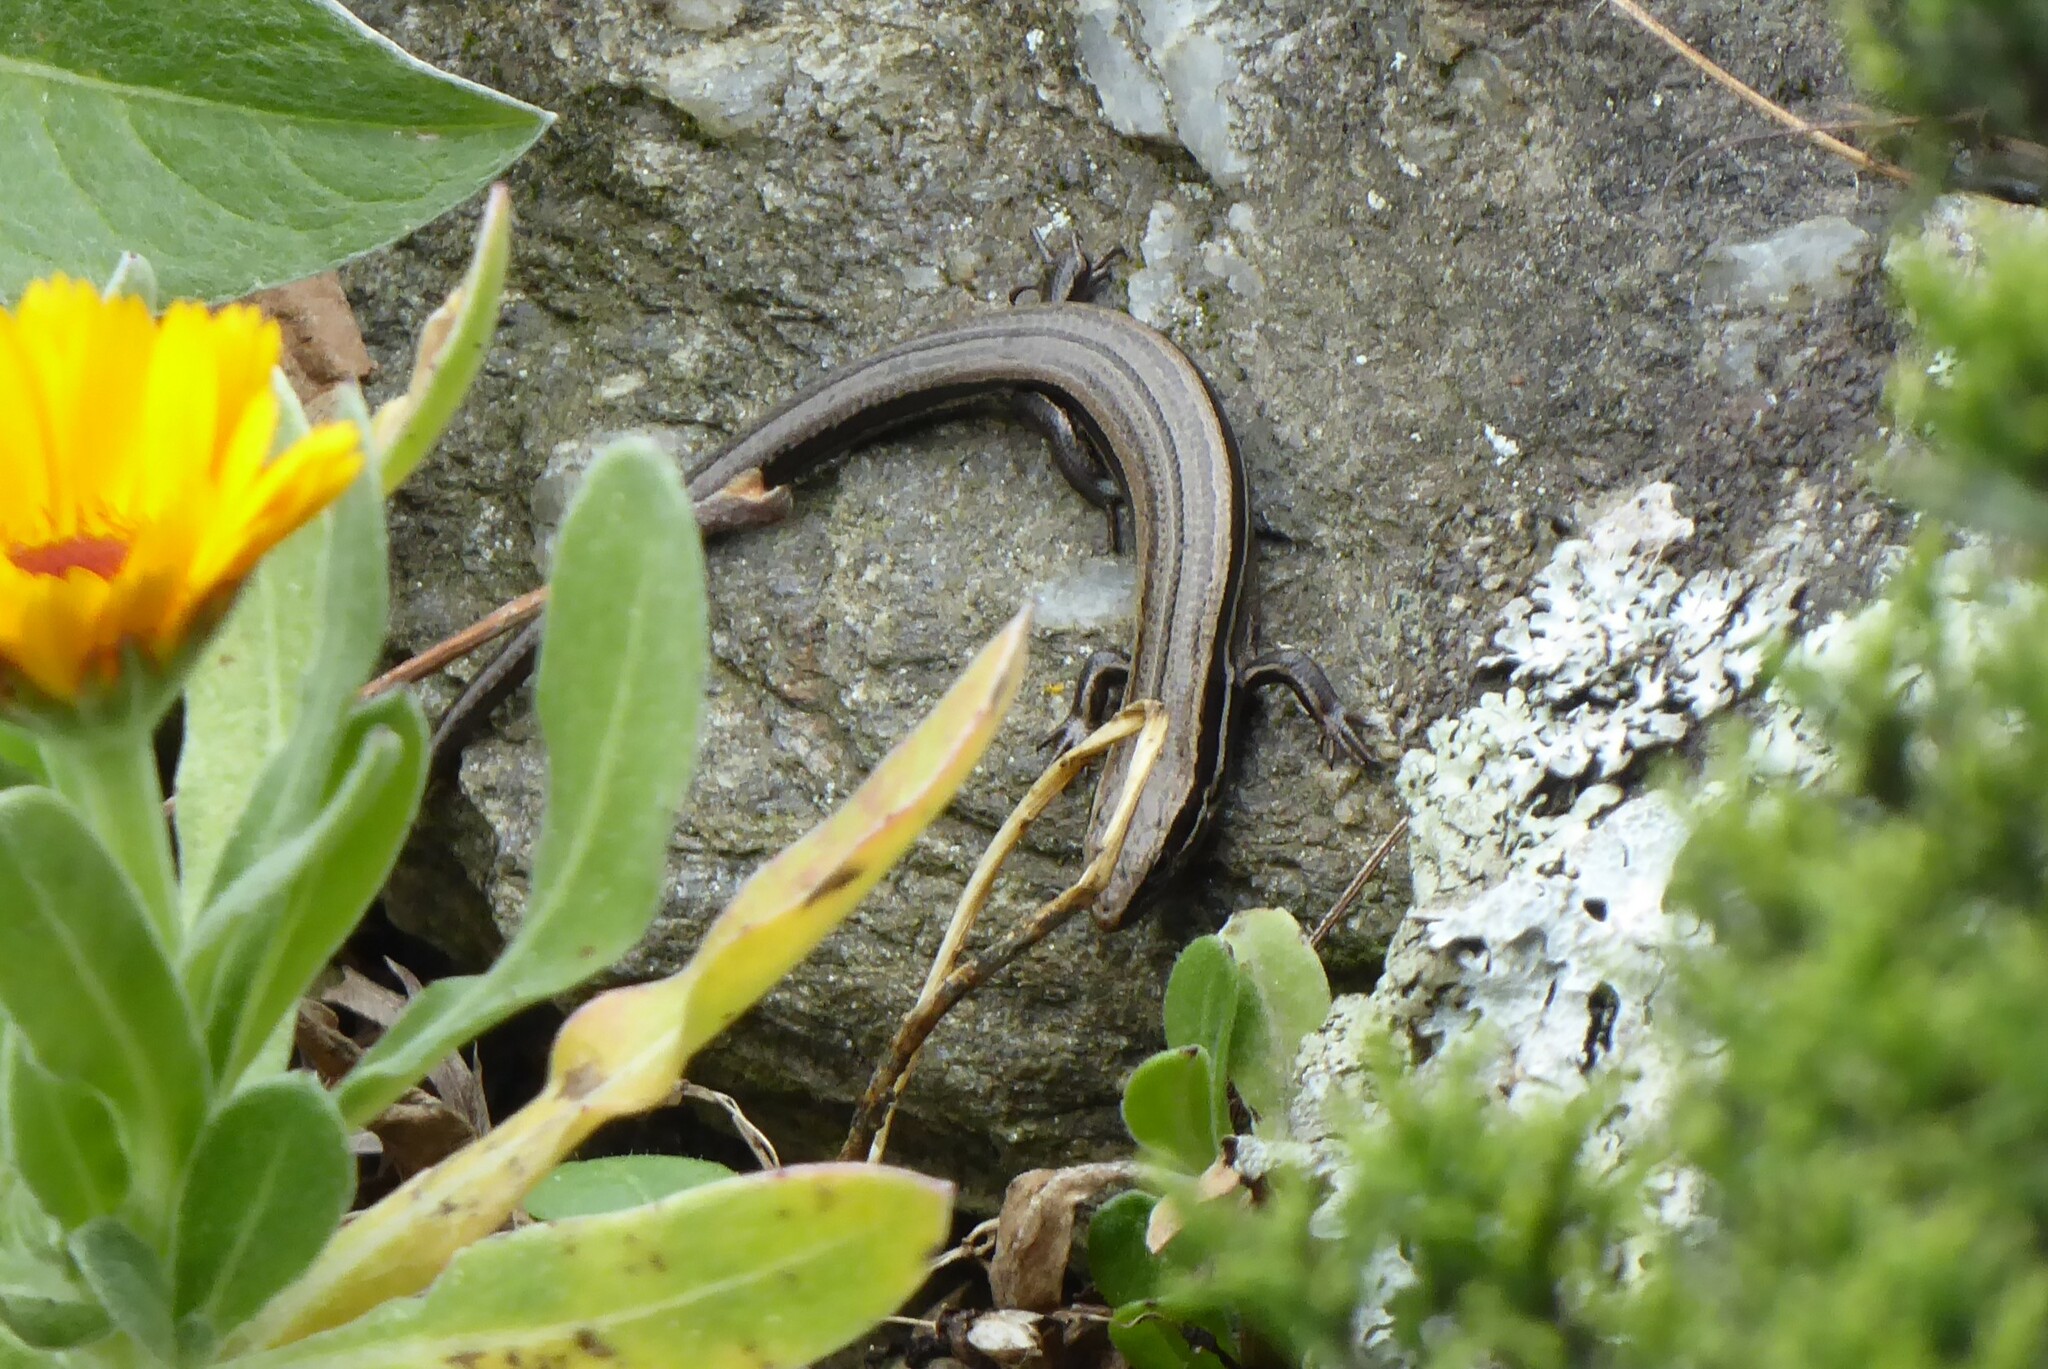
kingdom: Animalia
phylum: Chordata
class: Squamata
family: Scincidae
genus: Oligosoma
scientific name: Oligosoma polychroma
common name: Common new zealand skink
